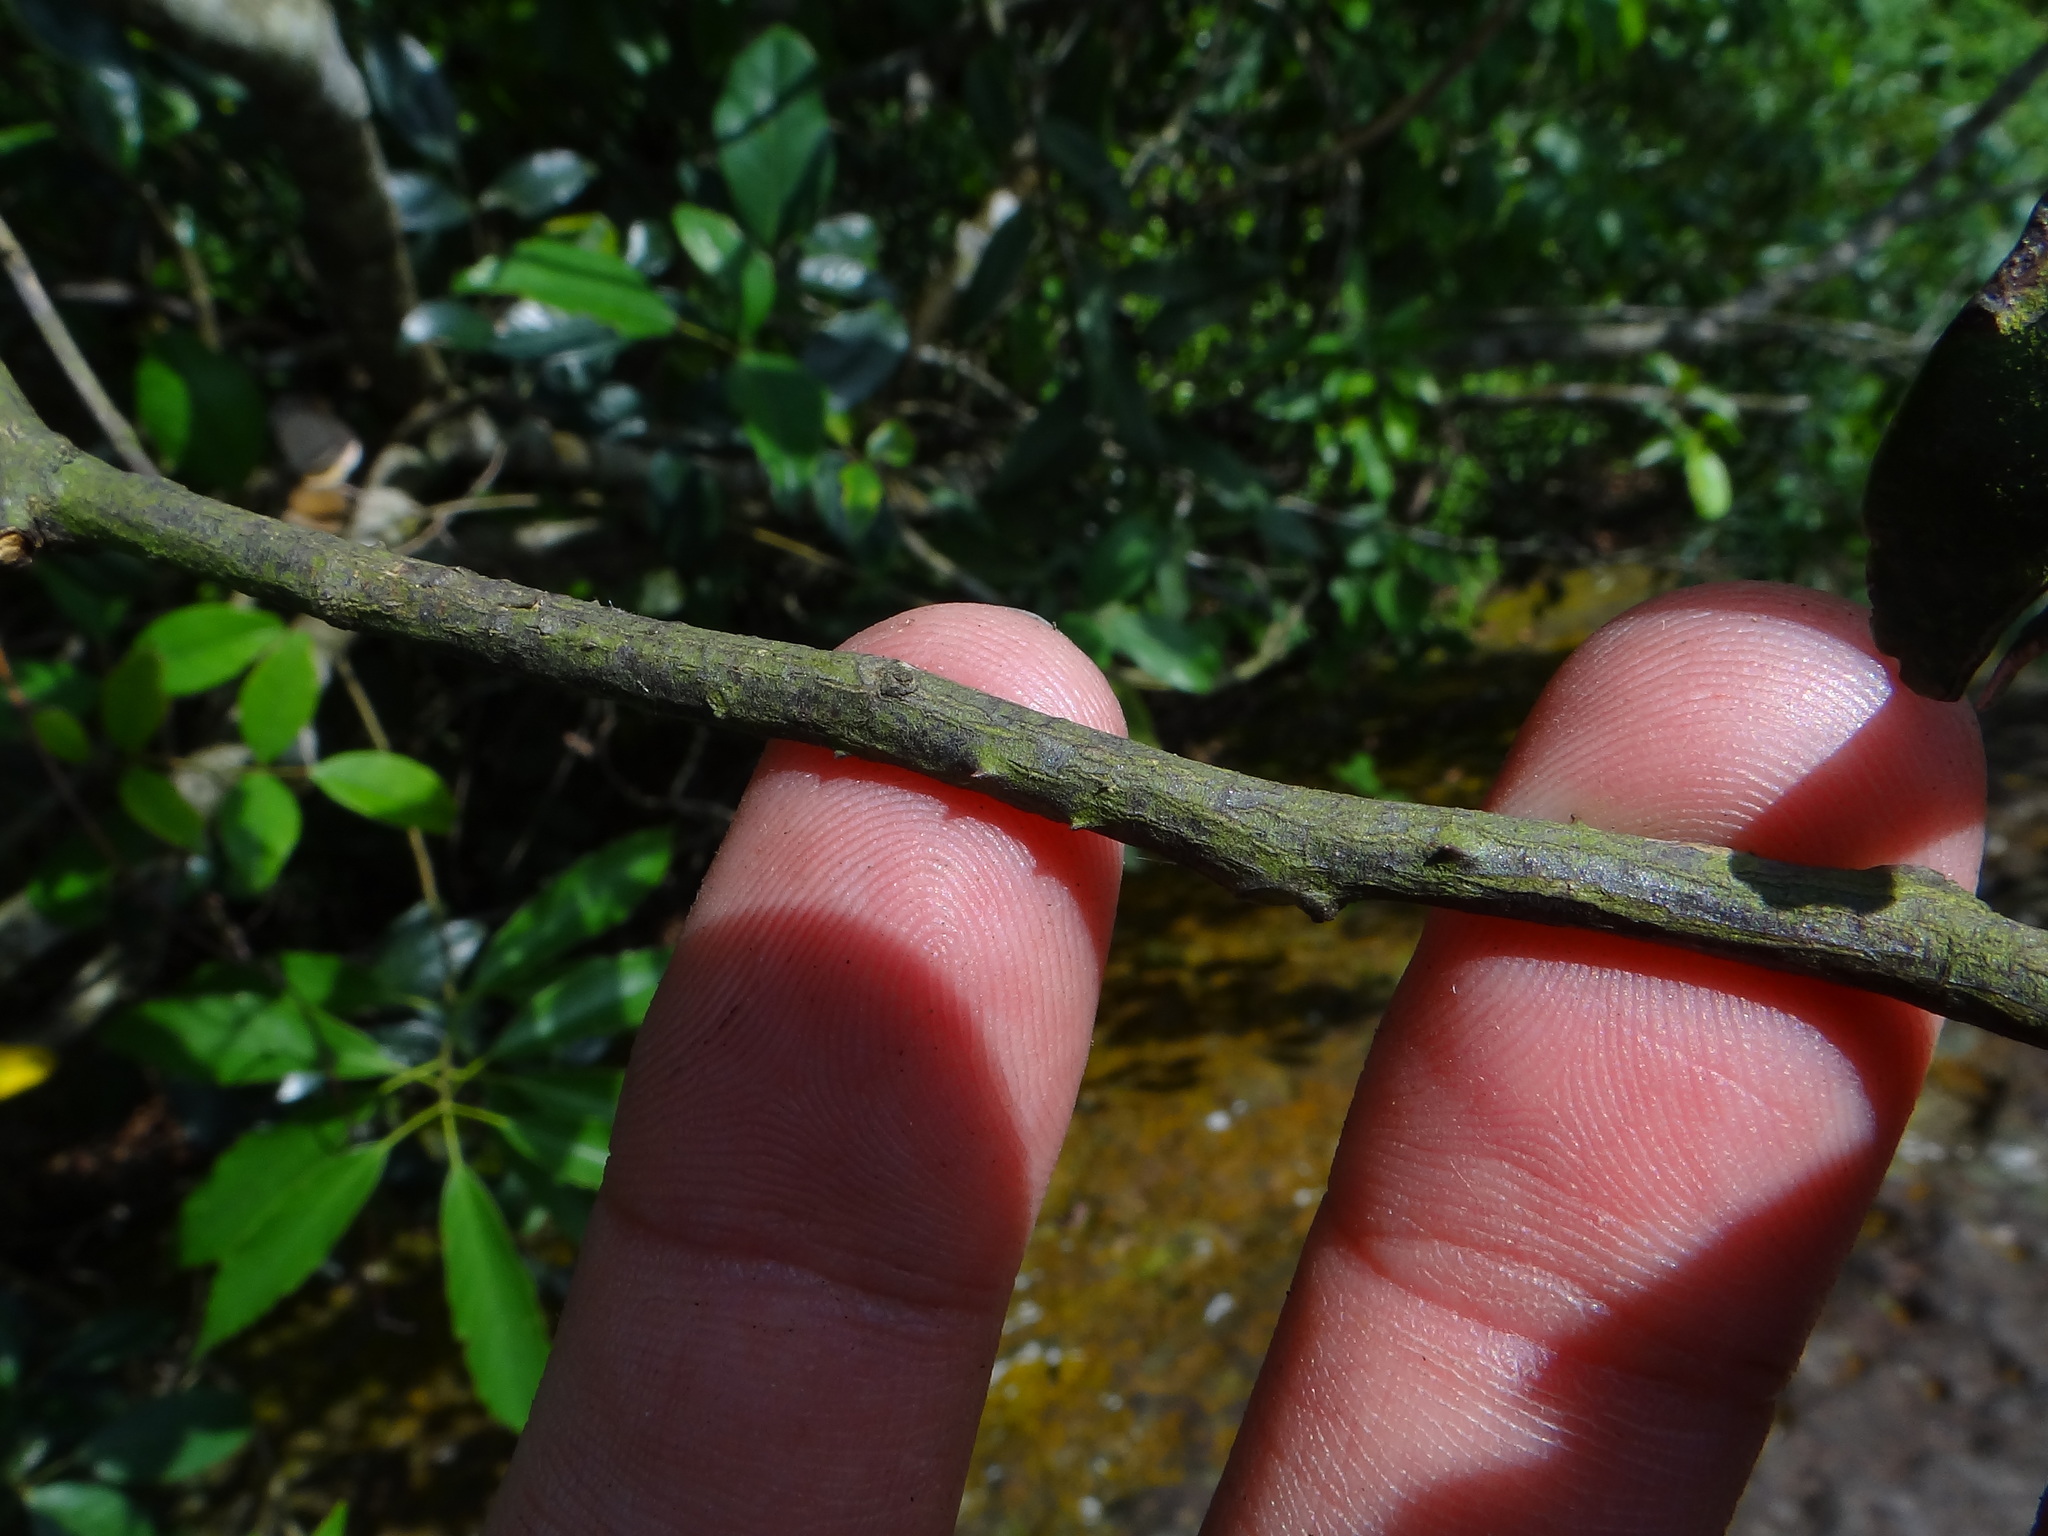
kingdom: Plantae
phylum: Tracheophyta
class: Magnoliopsida
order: Sapindales
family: Rutaceae
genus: Zanthoxylum
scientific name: Zanthoxylum nitidum
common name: Shiny-leaf prickly-ash
